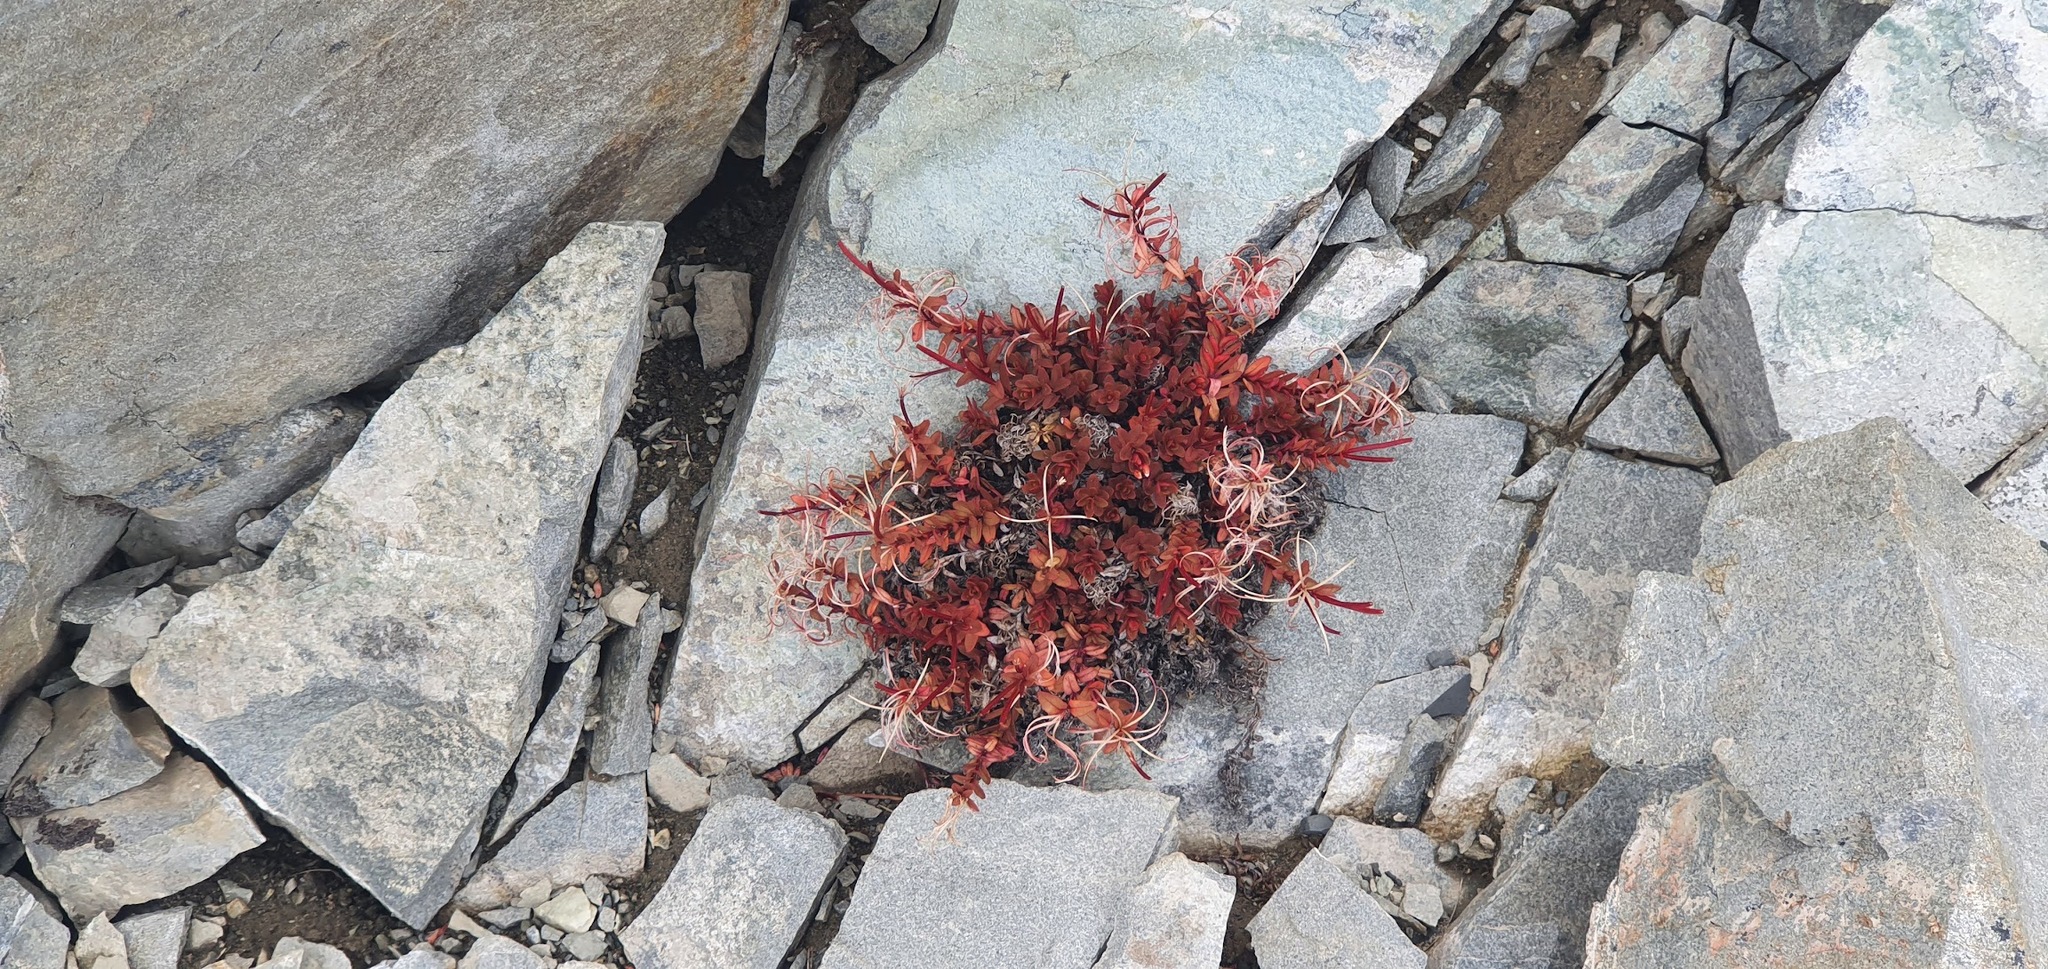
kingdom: Plantae
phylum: Tracheophyta
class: Magnoliopsida
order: Myrtales
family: Onagraceae
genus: Epilobium
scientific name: Epilobium porphyrium
